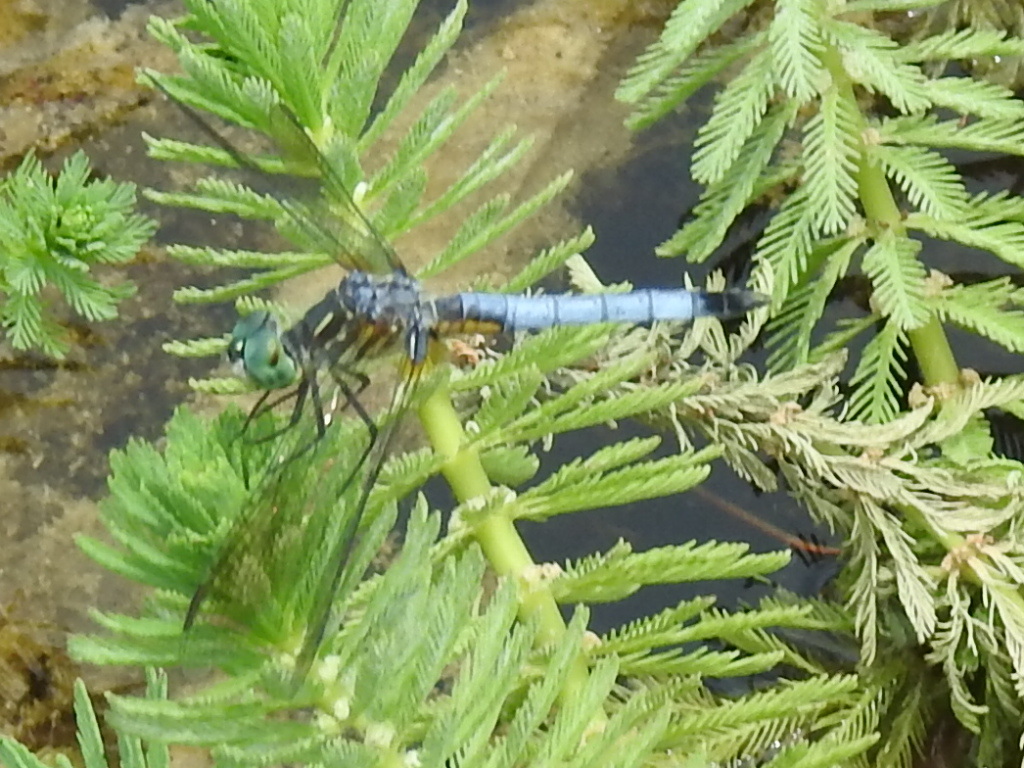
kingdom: Animalia
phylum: Arthropoda
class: Insecta
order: Odonata
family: Libellulidae
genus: Pachydiplax
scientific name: Pachydiplax longipennis
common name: Blue dasher
